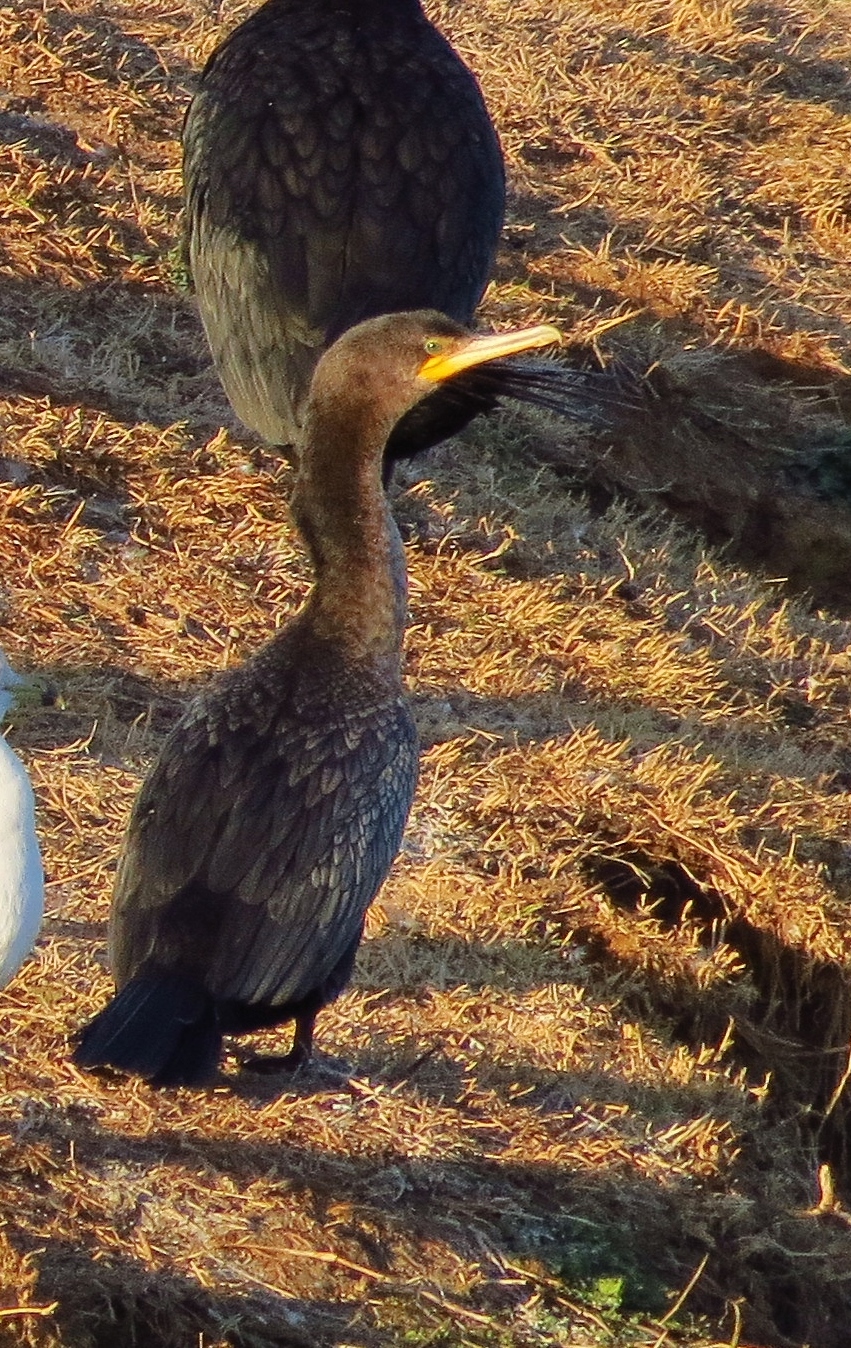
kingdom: Animalia
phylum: Chordata
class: Aves
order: Suliformes
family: Phalacrocoracidae
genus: Phalacrocorax
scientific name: Phalacrocorax brasilianus
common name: Neotropic cormorant
